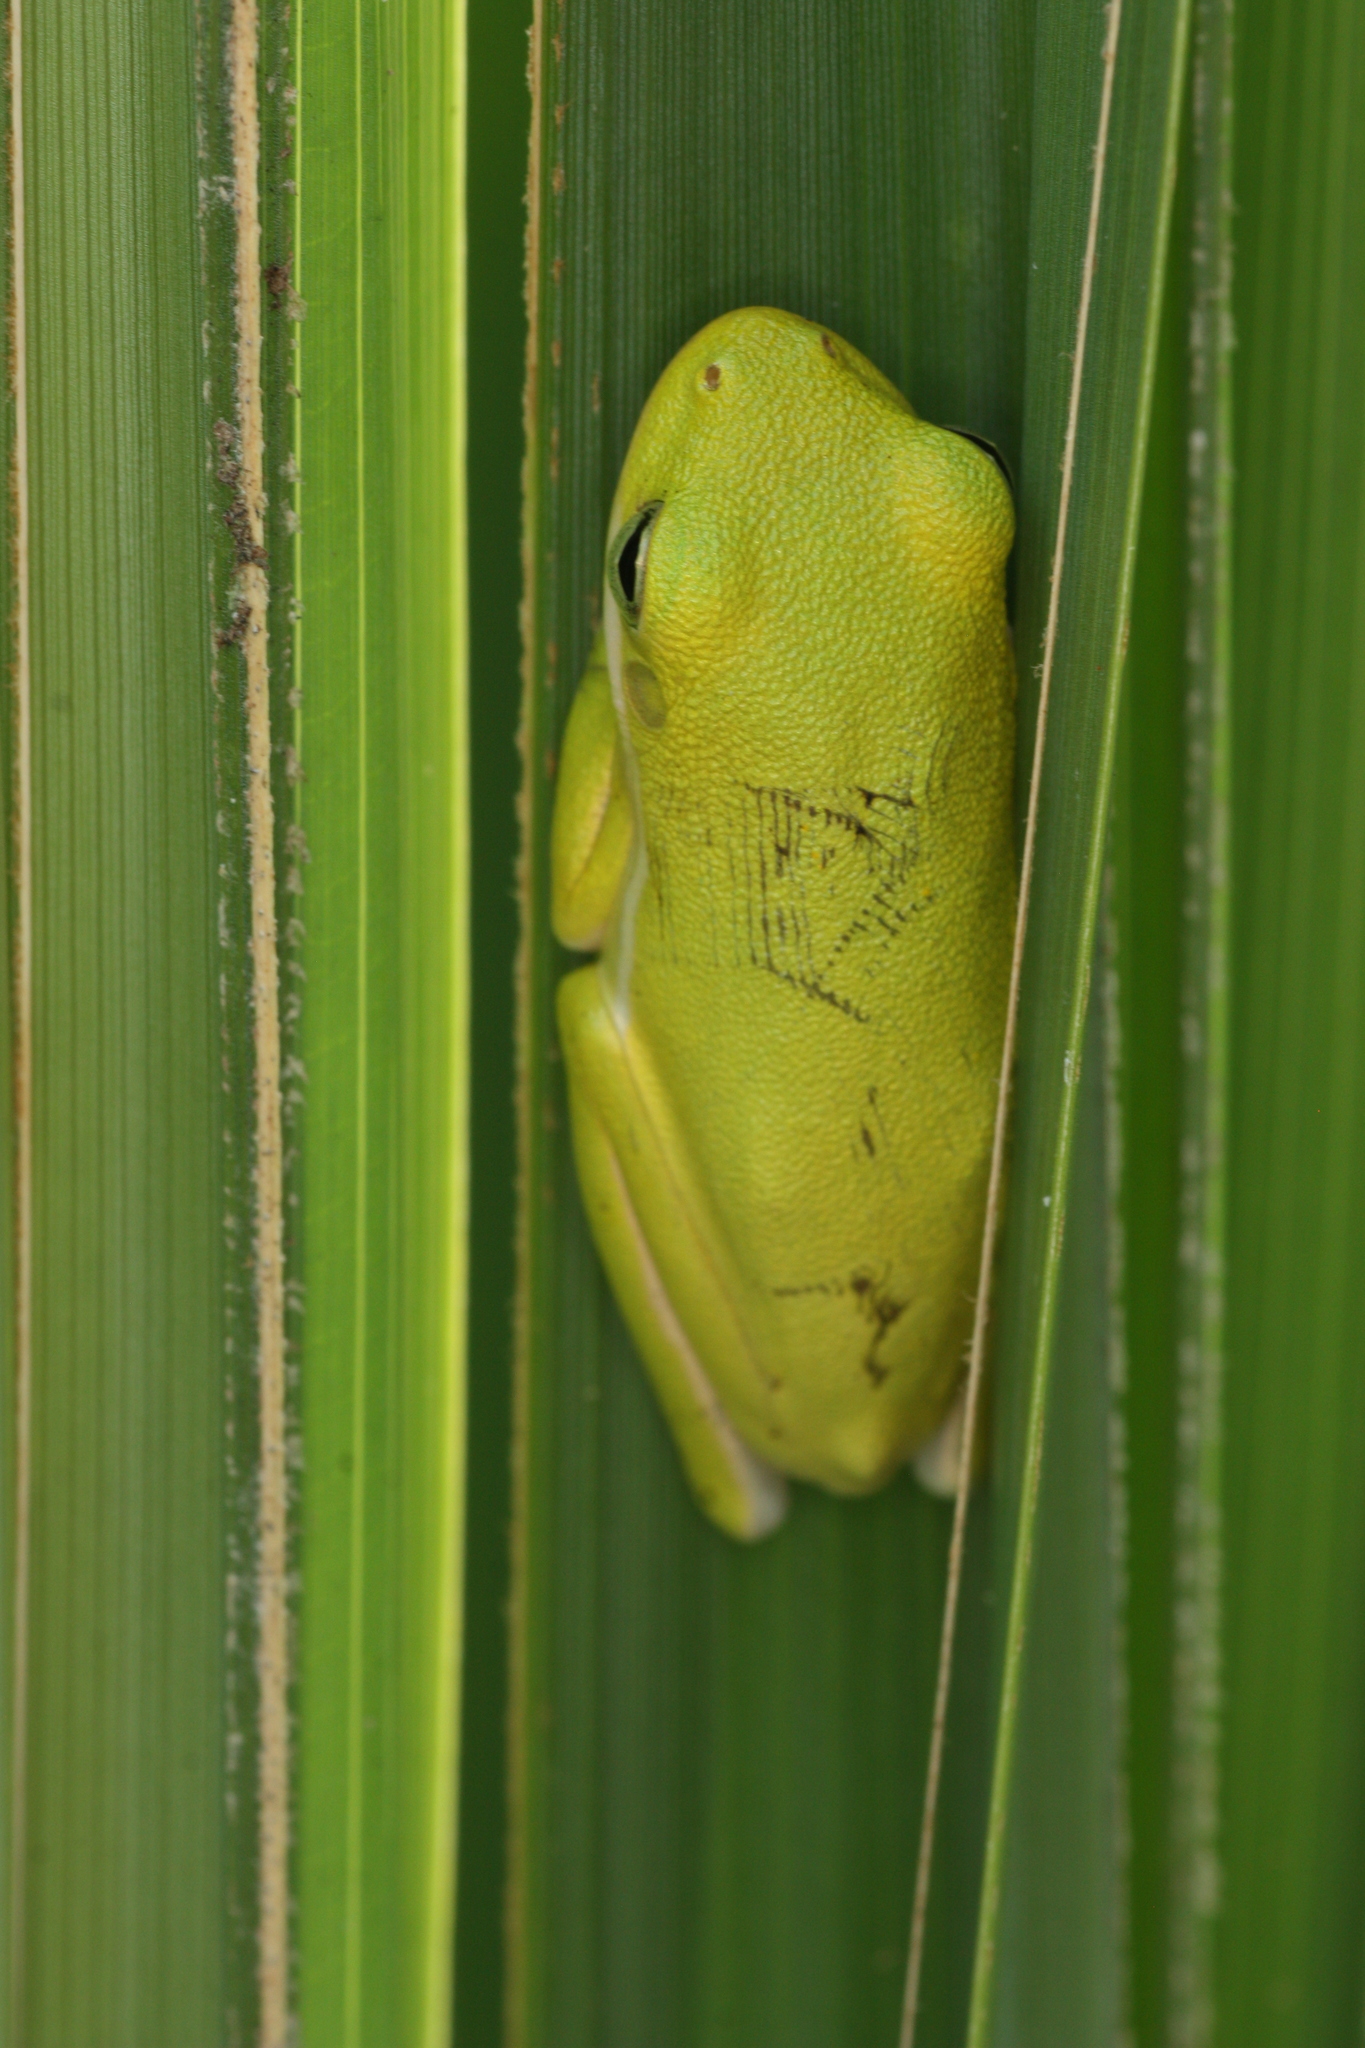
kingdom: Animalia
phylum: Chordata
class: Amphibia
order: Anura
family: Hylidae
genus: Dryophytes
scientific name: Dryophytes cinereus
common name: Green treefrog
